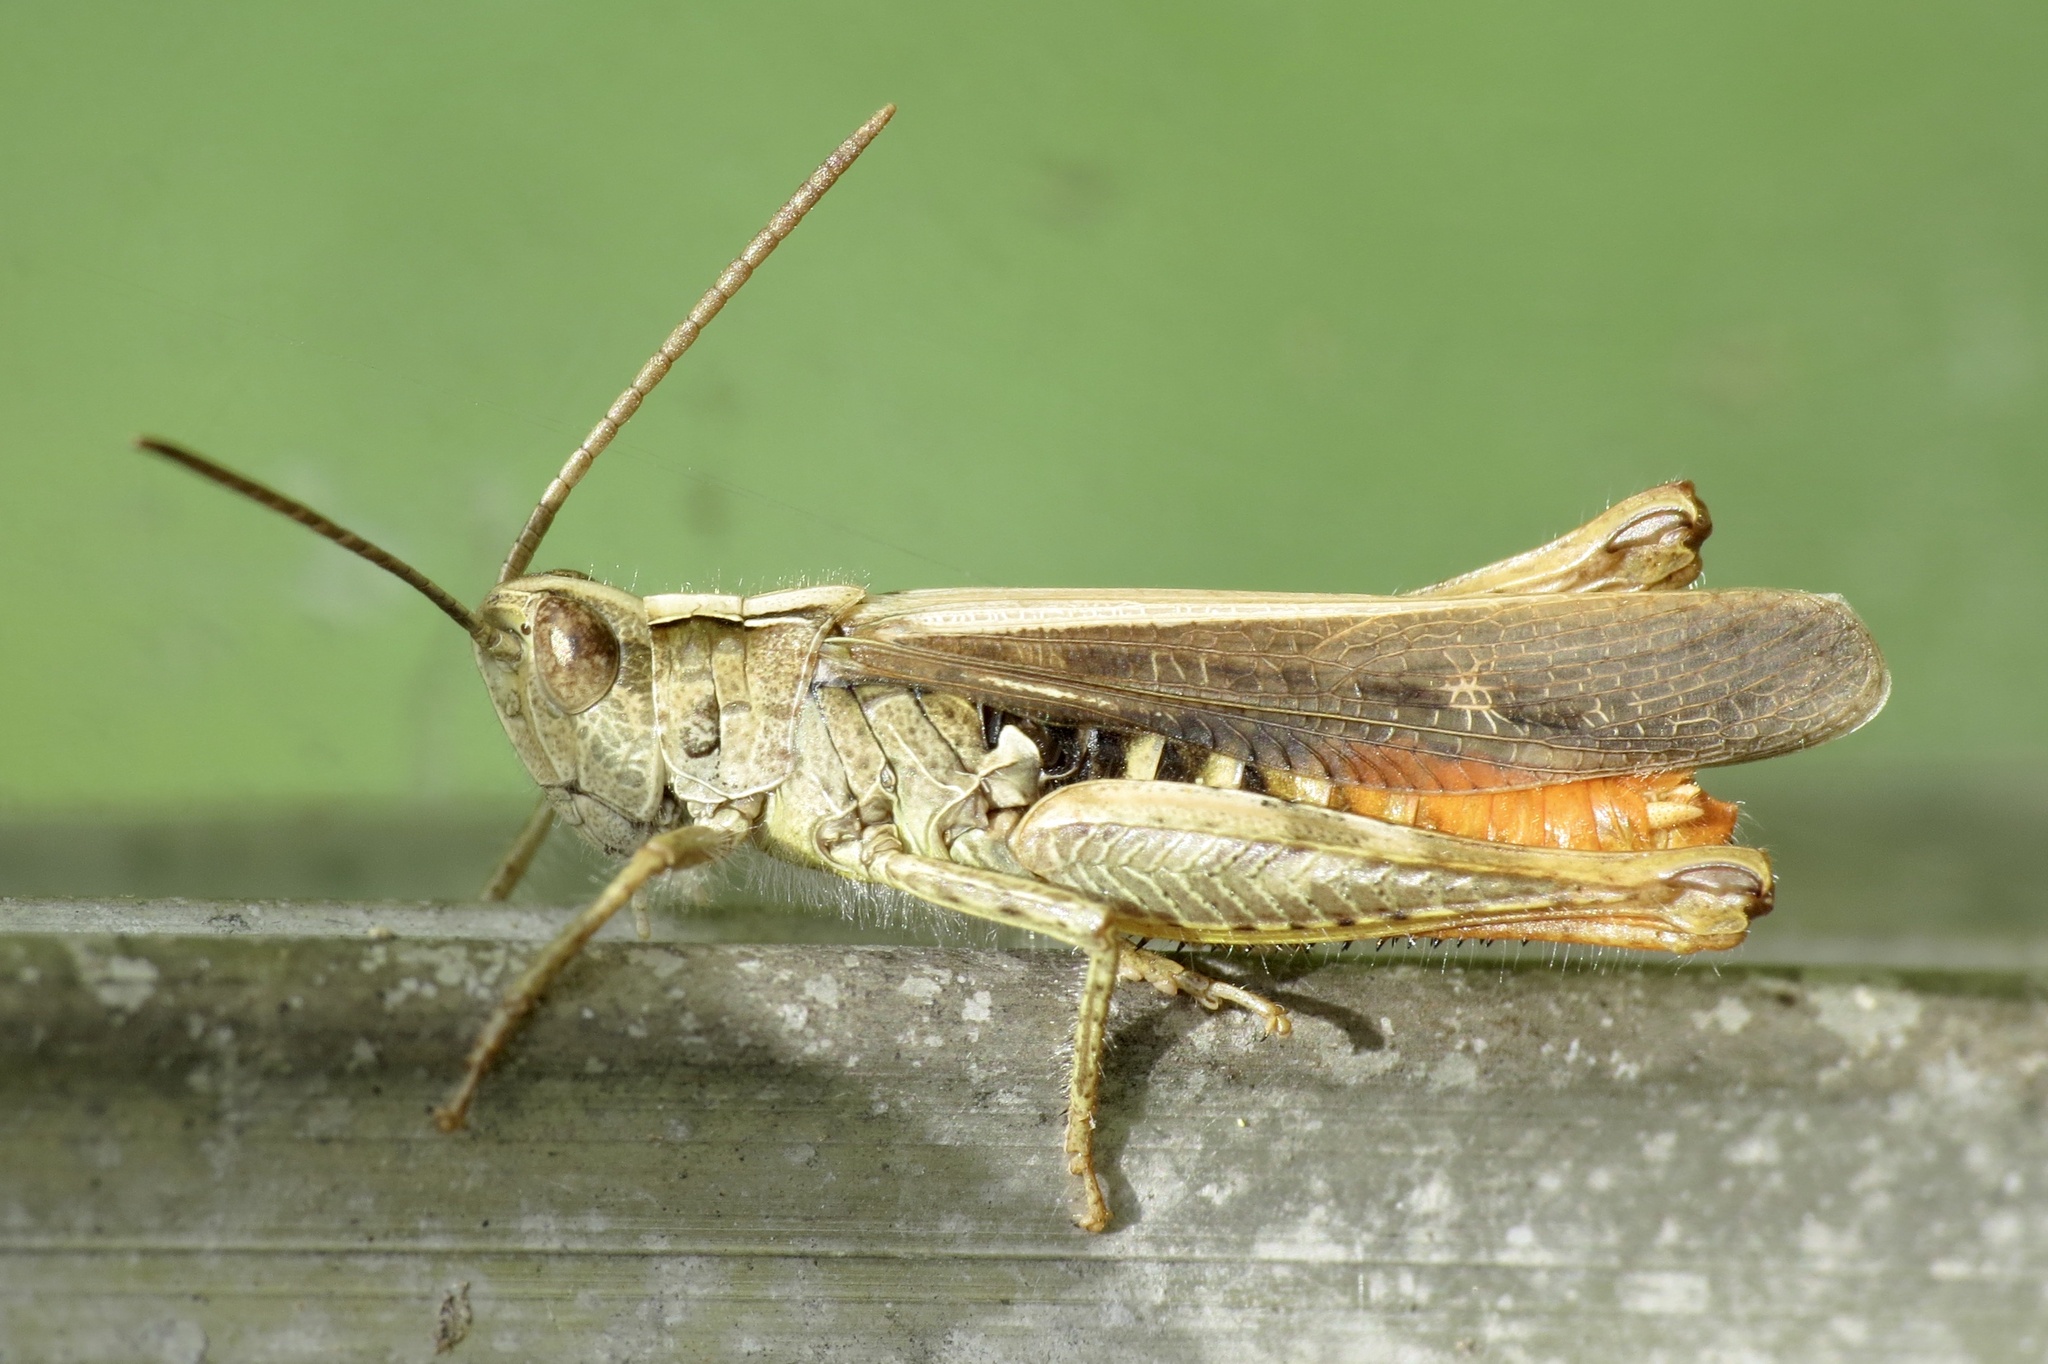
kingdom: Animalia
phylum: Arthropoda
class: Insecta
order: Orthoptera
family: Acrididae
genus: Chorthippus
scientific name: Chorthippus brunneus
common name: Field grasshopper
